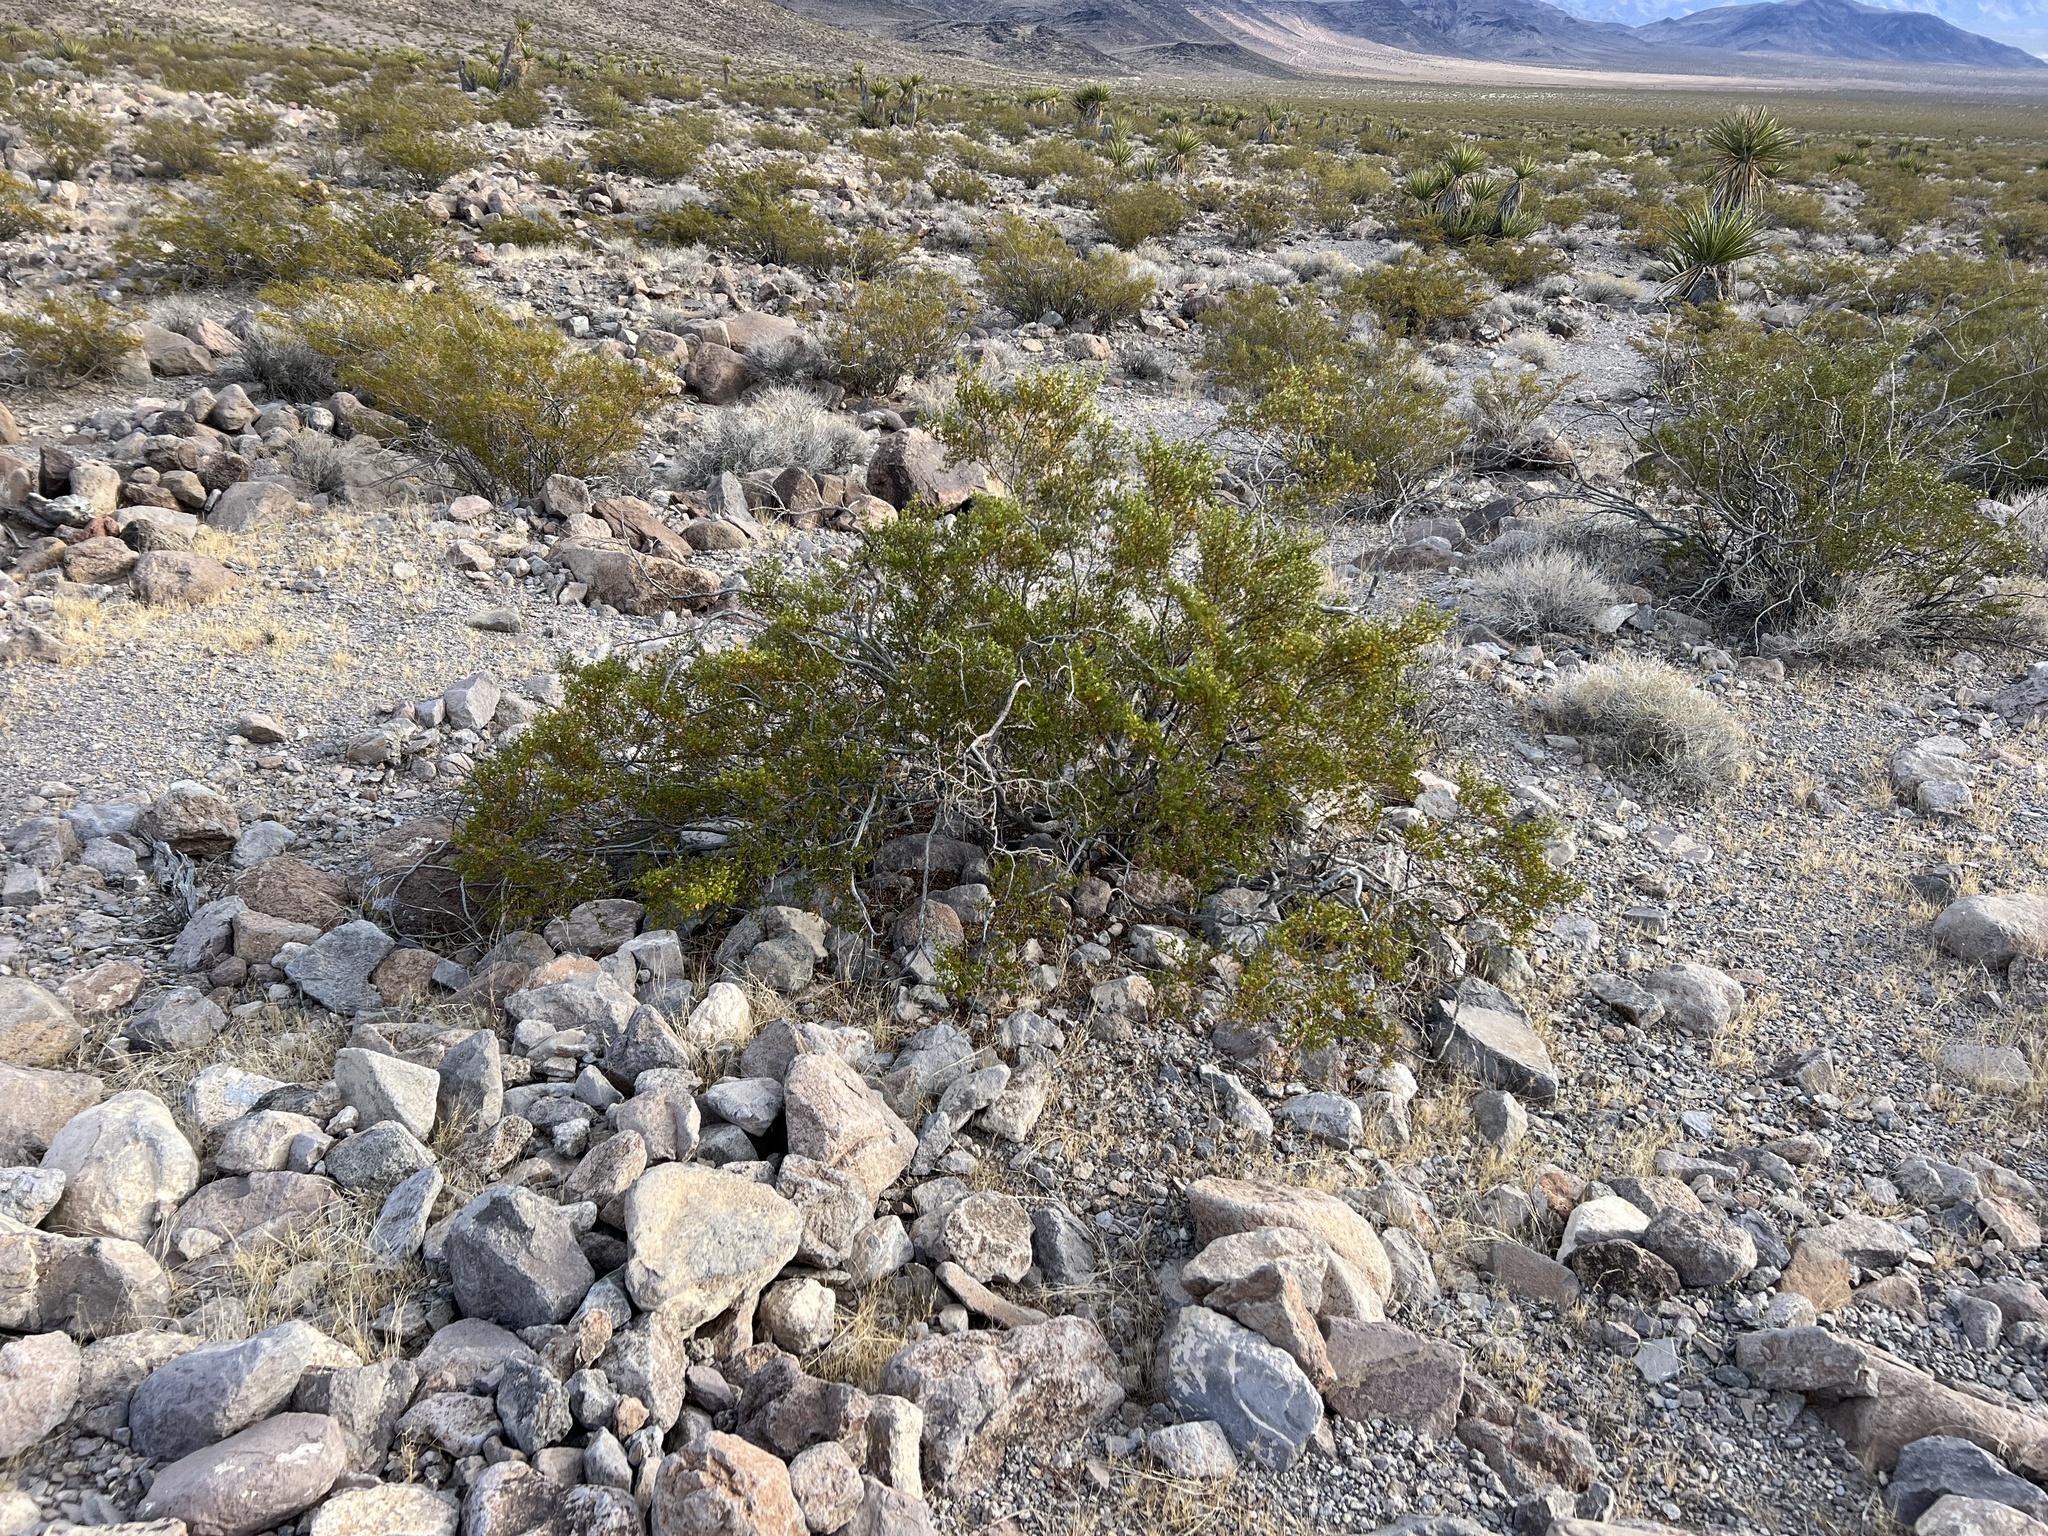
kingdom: Plantae
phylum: Tracheophyta
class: Magnoliopsida
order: Zygophyllales
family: Zygophyllaceae
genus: Larrea
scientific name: Larrea tridentata
